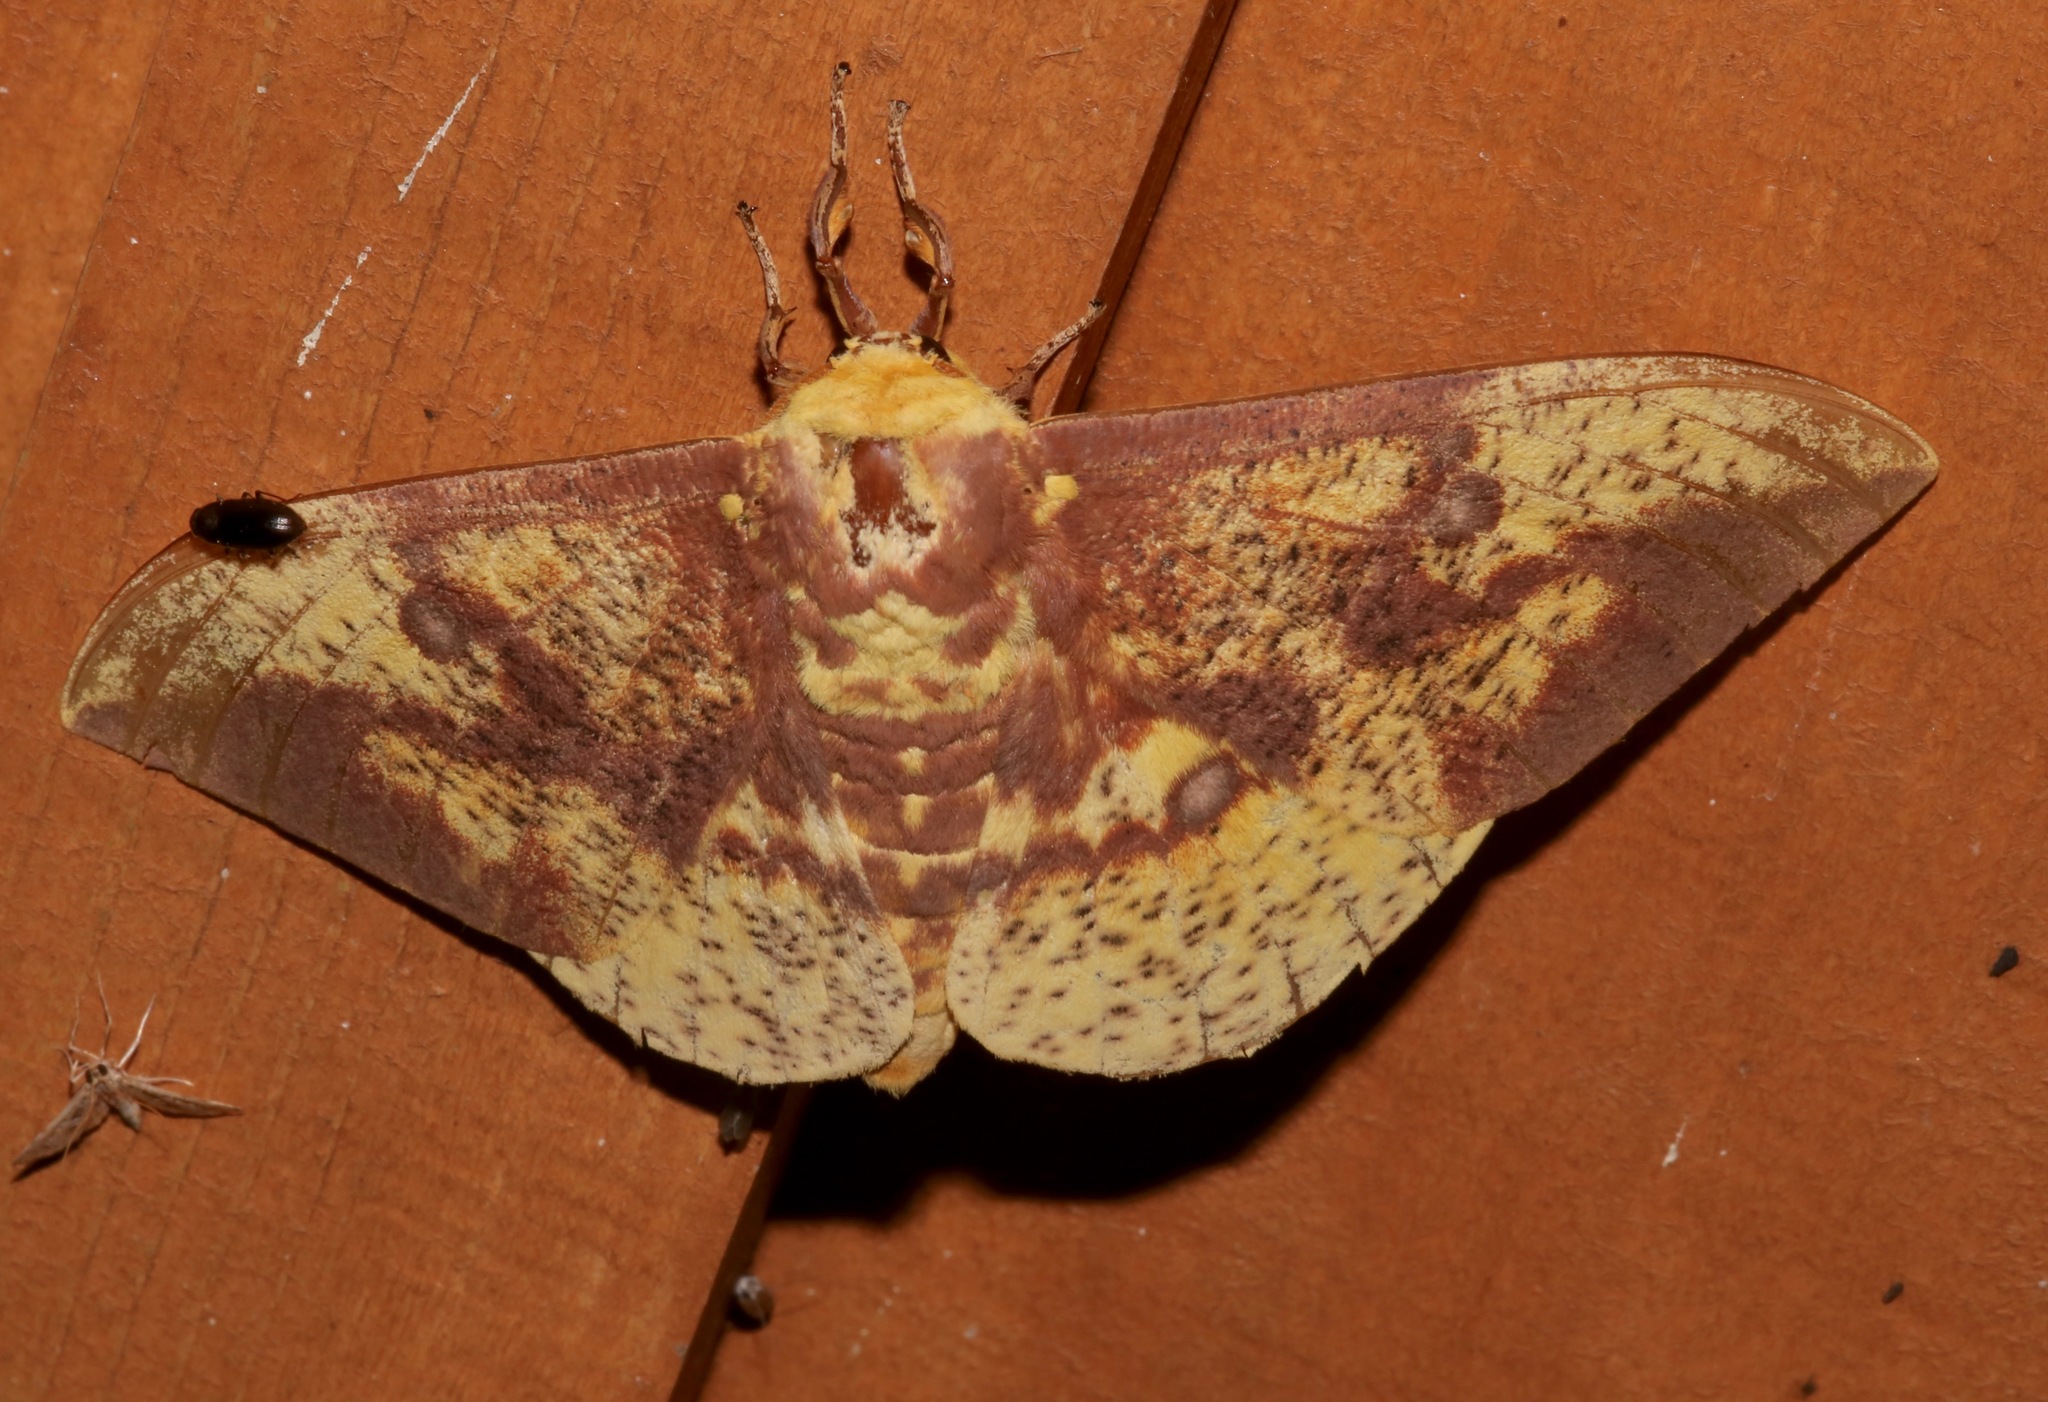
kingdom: Animalia
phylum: Arthropoda
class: Insecta
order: Lepidoptera
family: Saturniidae
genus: Eacles
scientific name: Eacles imperialis
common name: Imperial moth
